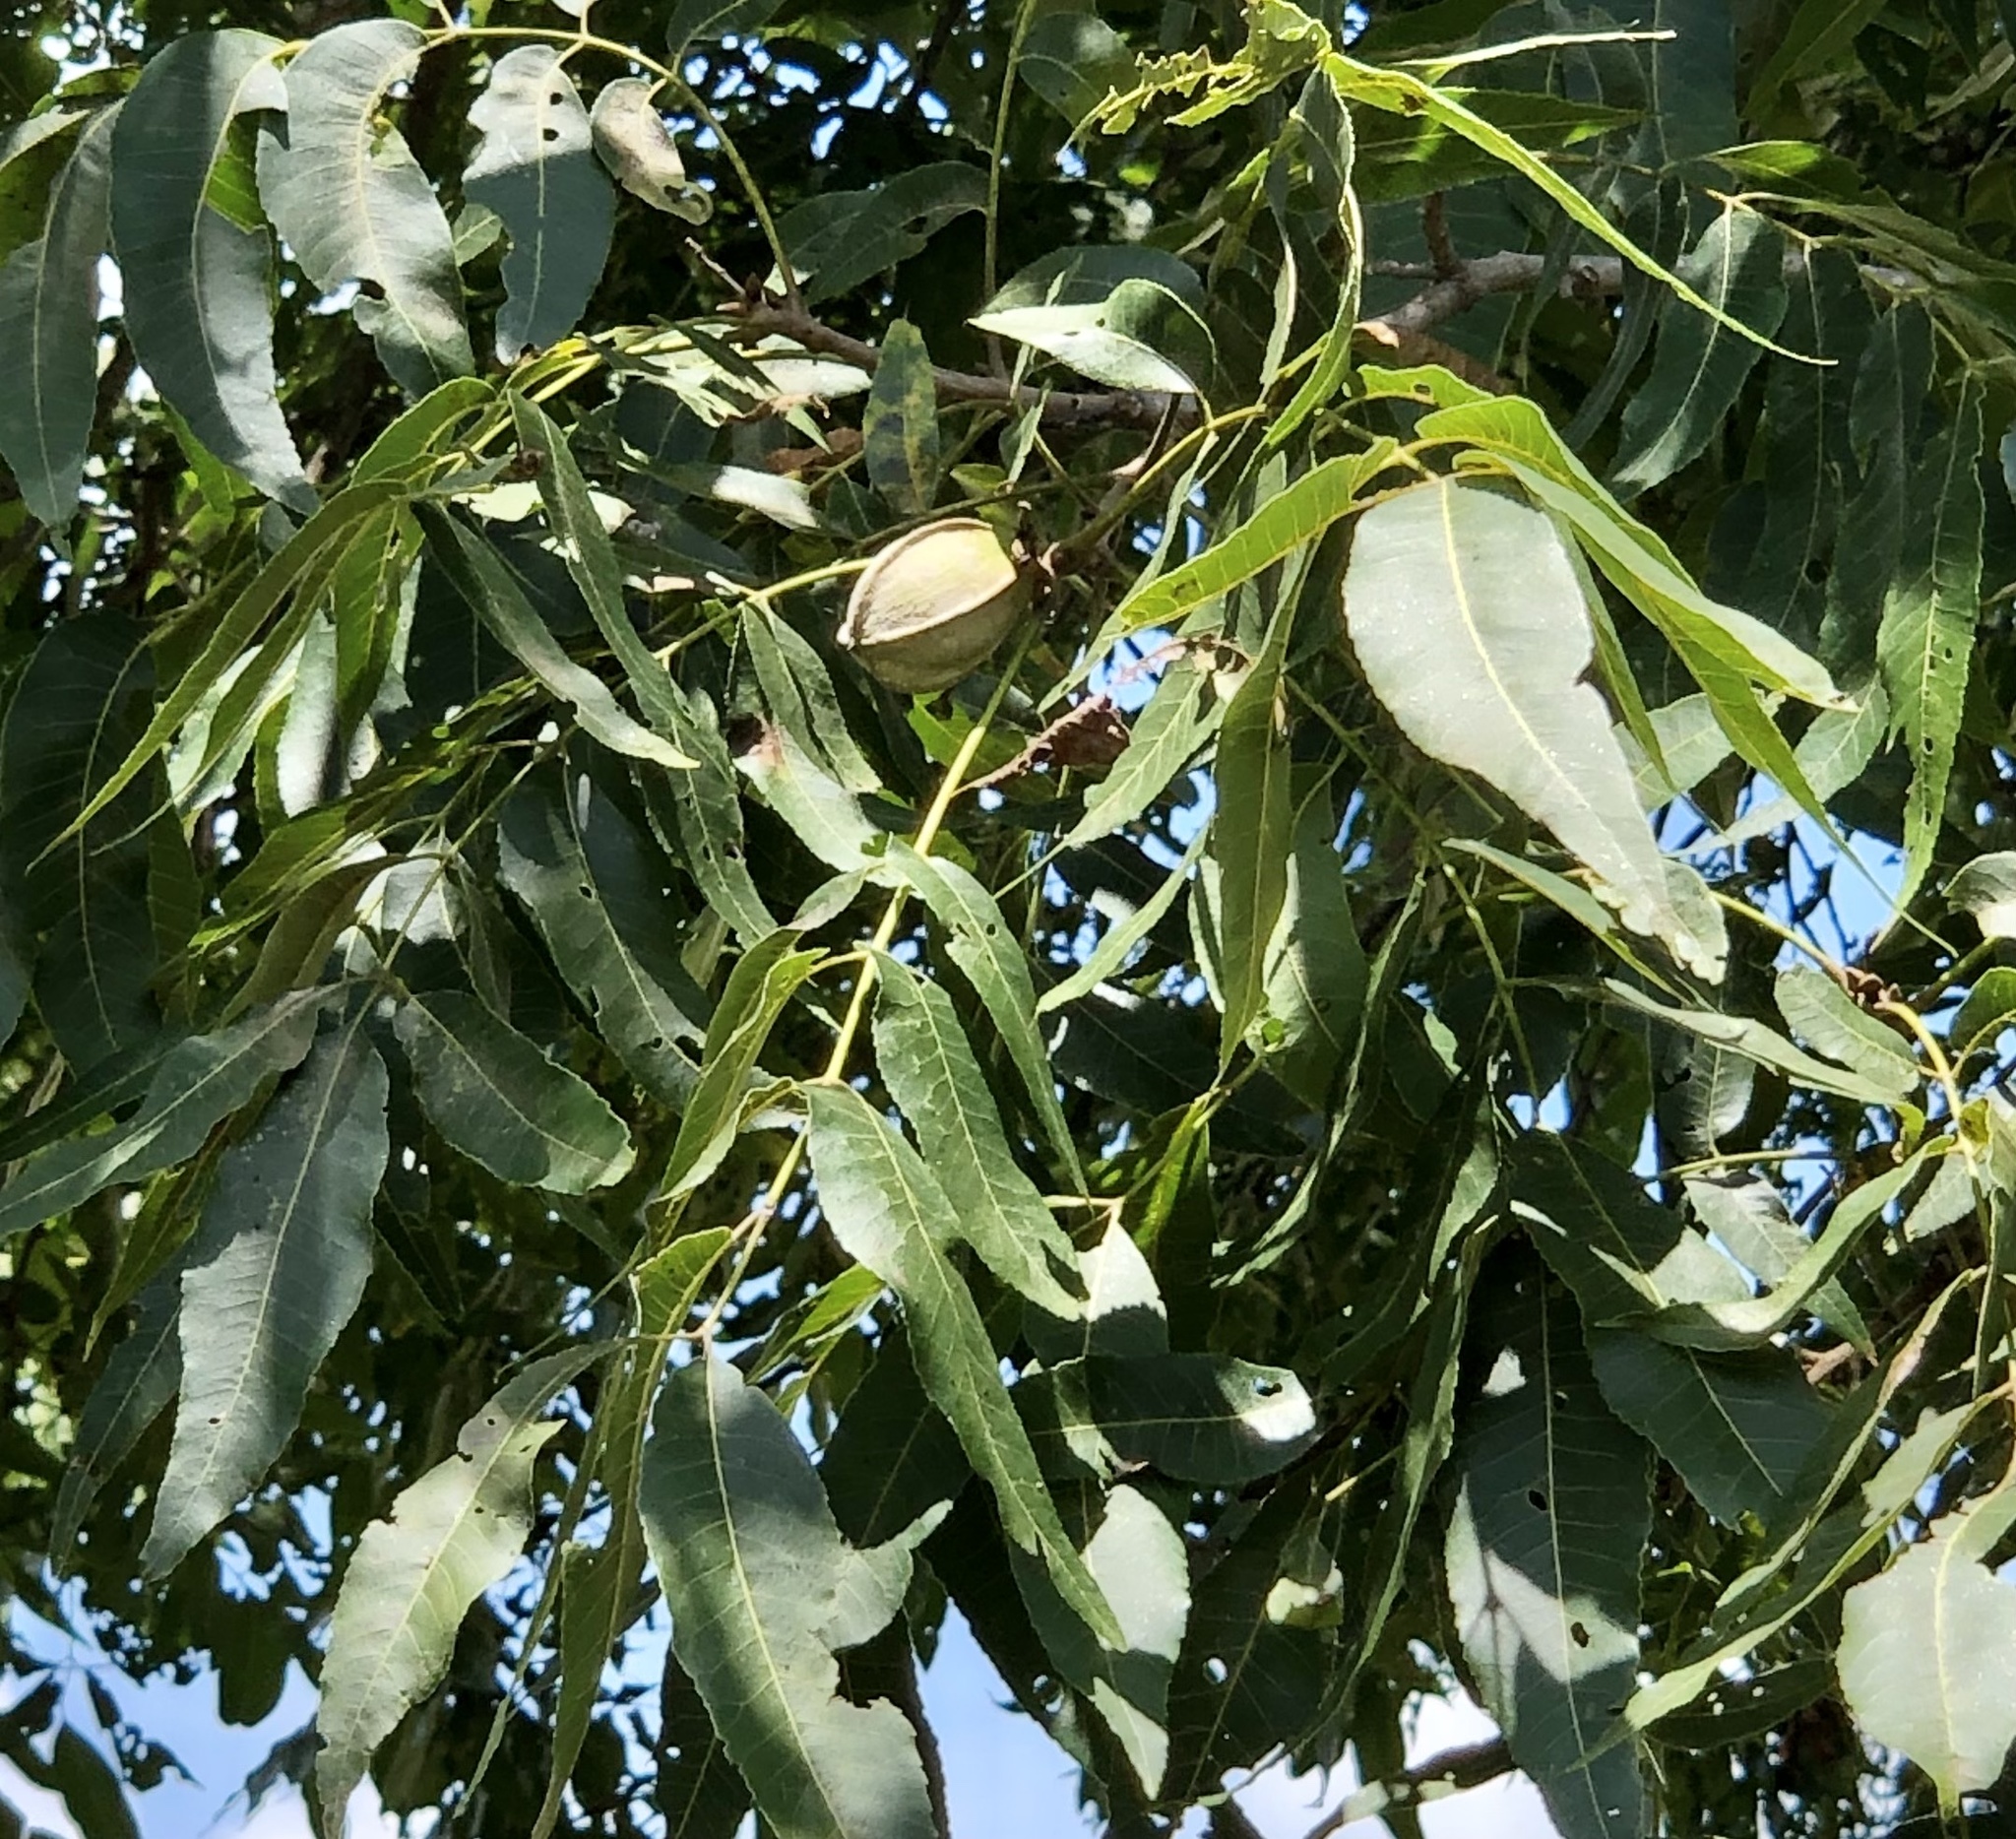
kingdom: Plantae
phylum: Tracheophyta
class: Magnoliopsida
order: Fagales
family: Juglandaceae
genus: Carya
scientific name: Carya illinoinensis
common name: Pecan
